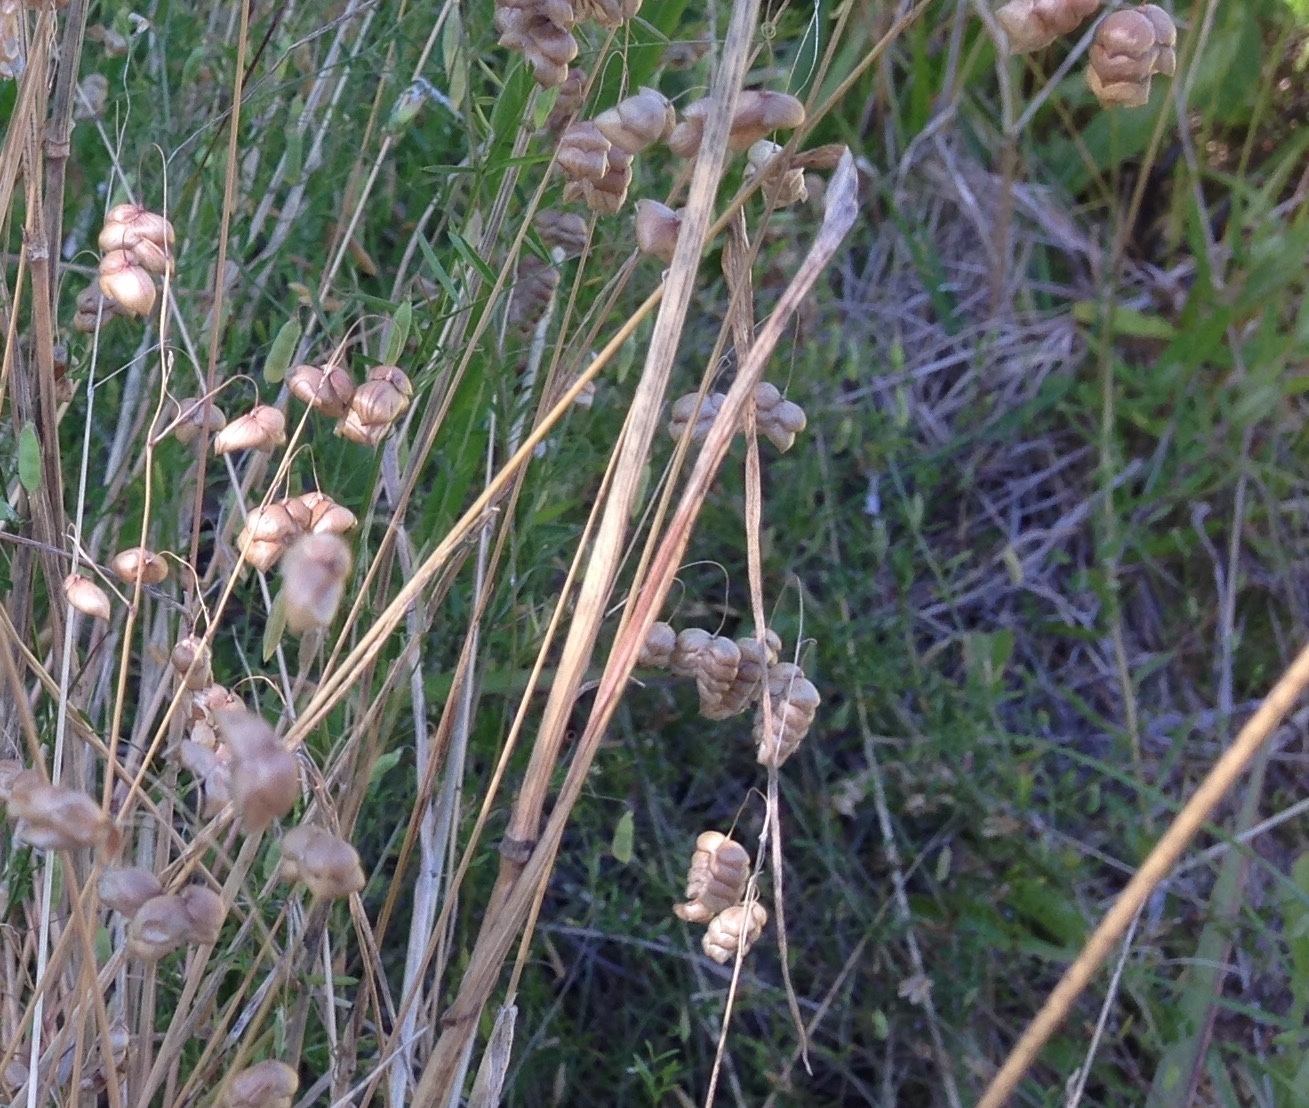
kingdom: Plantae
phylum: Tracheophyta
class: Liliopsida
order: Poales
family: Poaceae
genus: Briza
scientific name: Briza maxima
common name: Big quakinggrass
